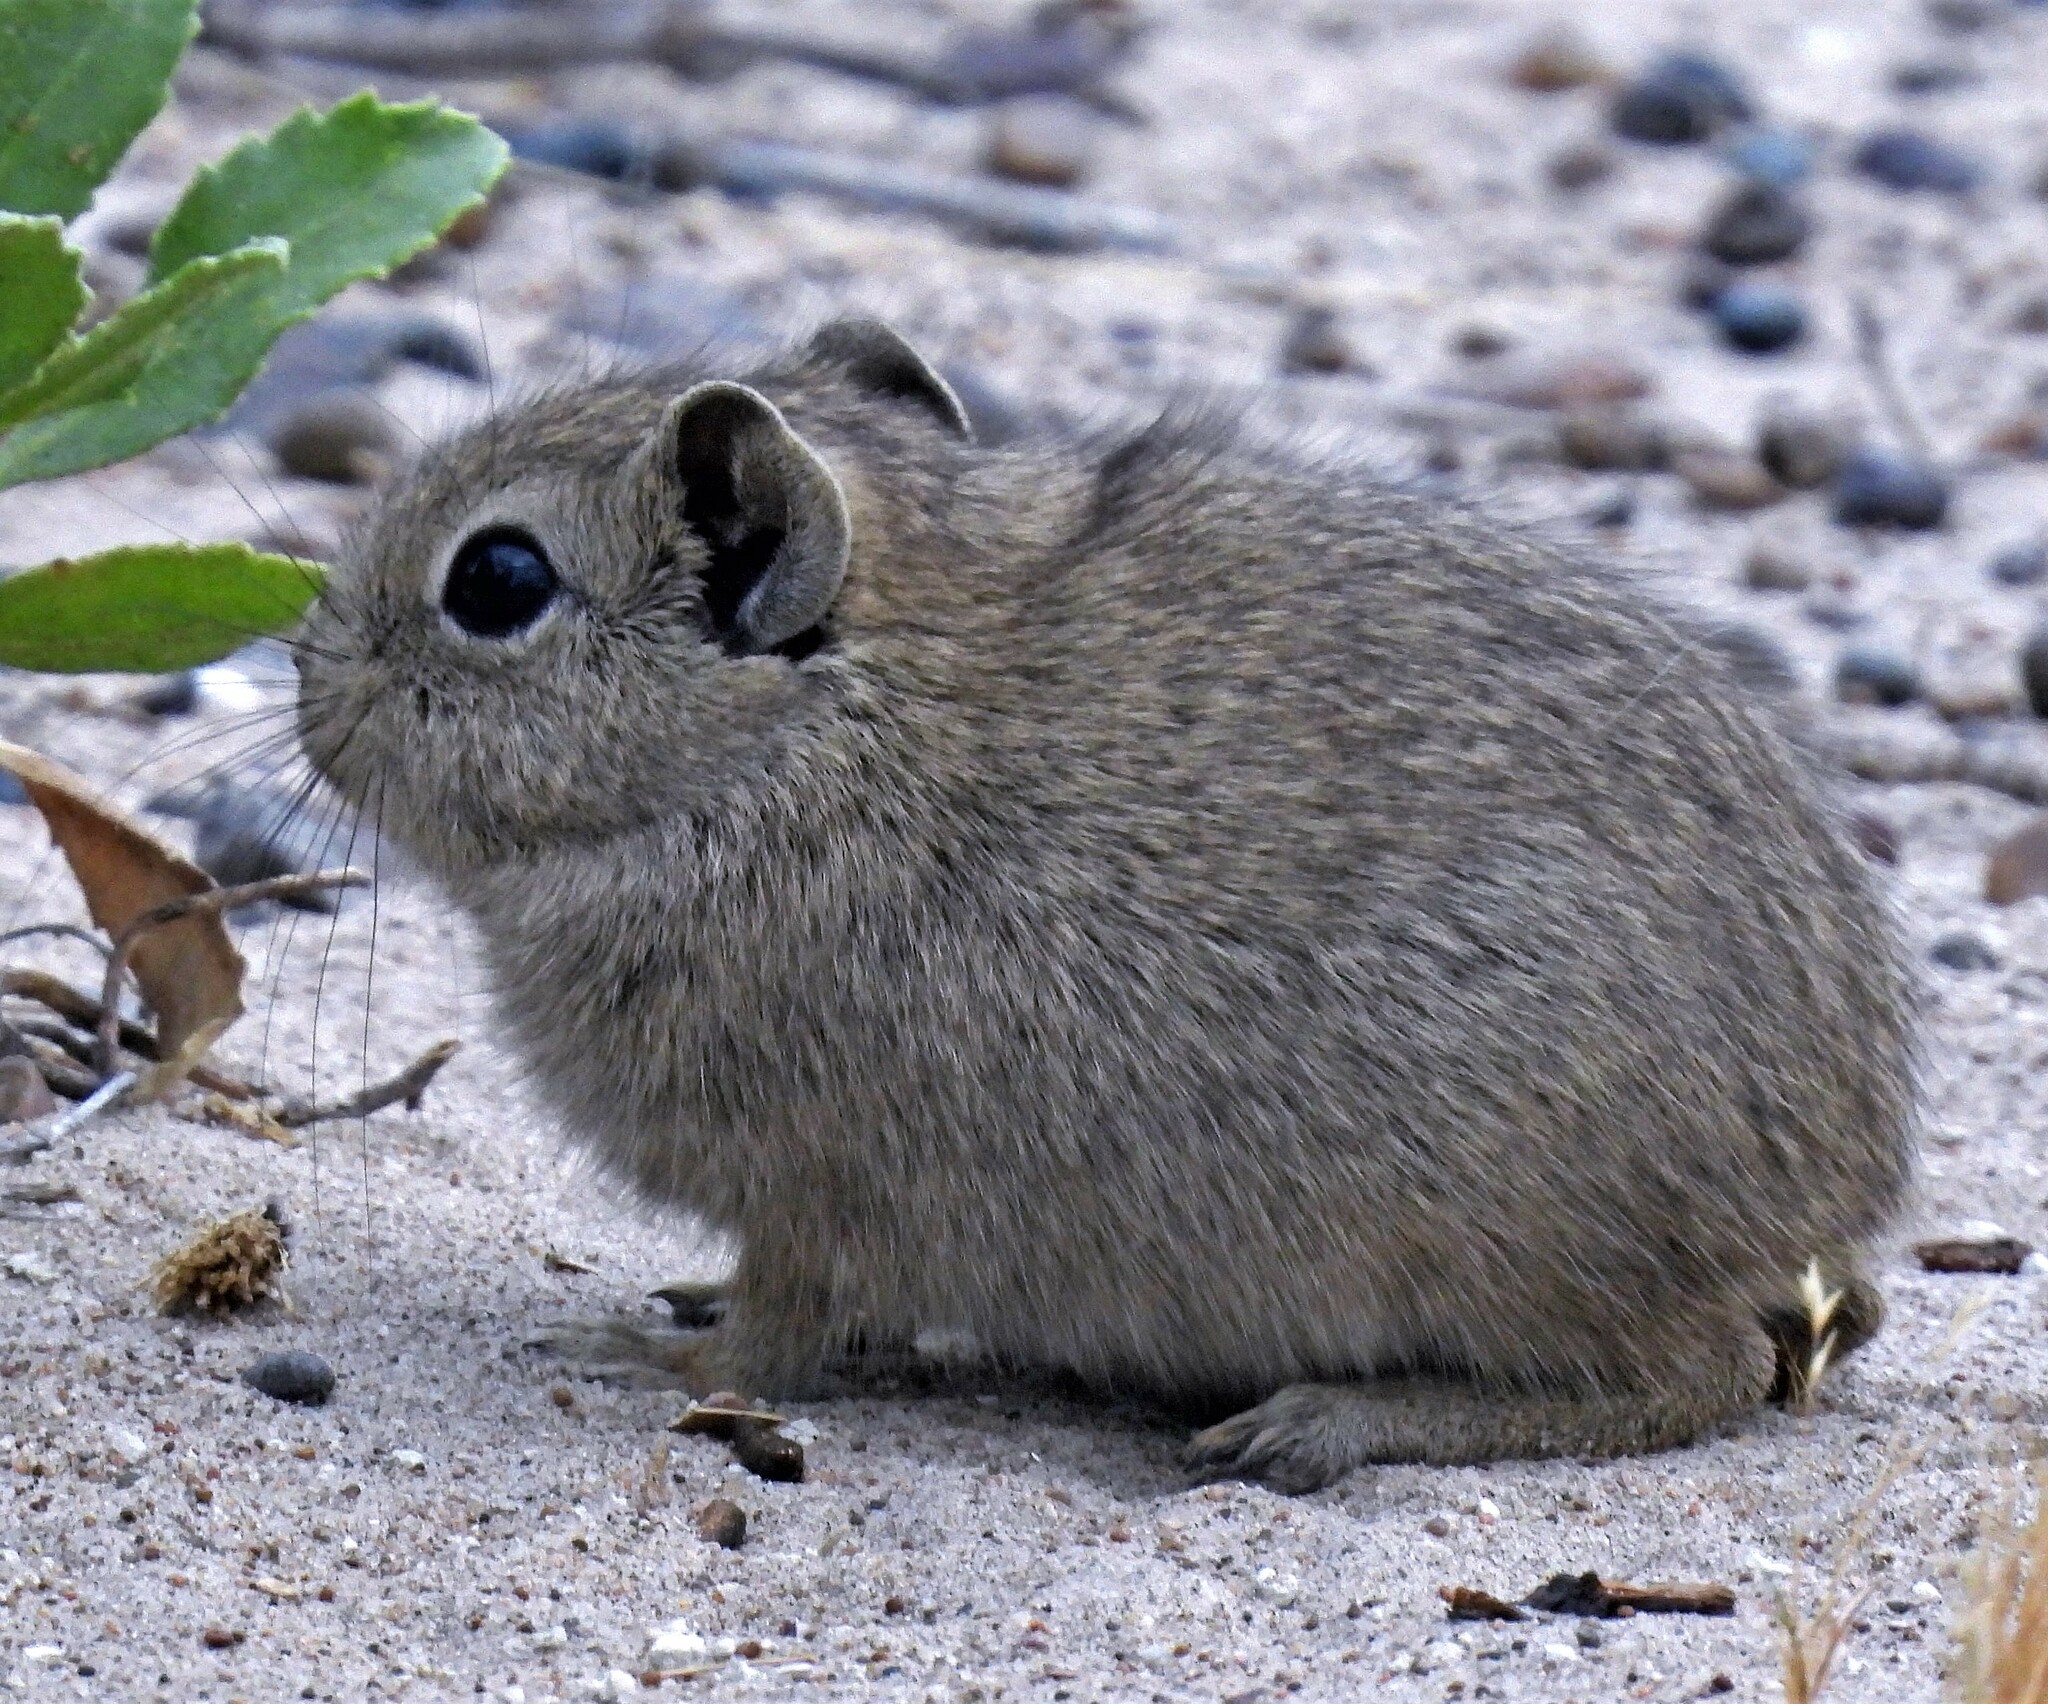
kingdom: Animalia
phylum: Chordata
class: Mammalia
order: Rodentia
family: Caviidae
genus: Microcavia
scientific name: Microcavia australis
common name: Southern mountain cavy
